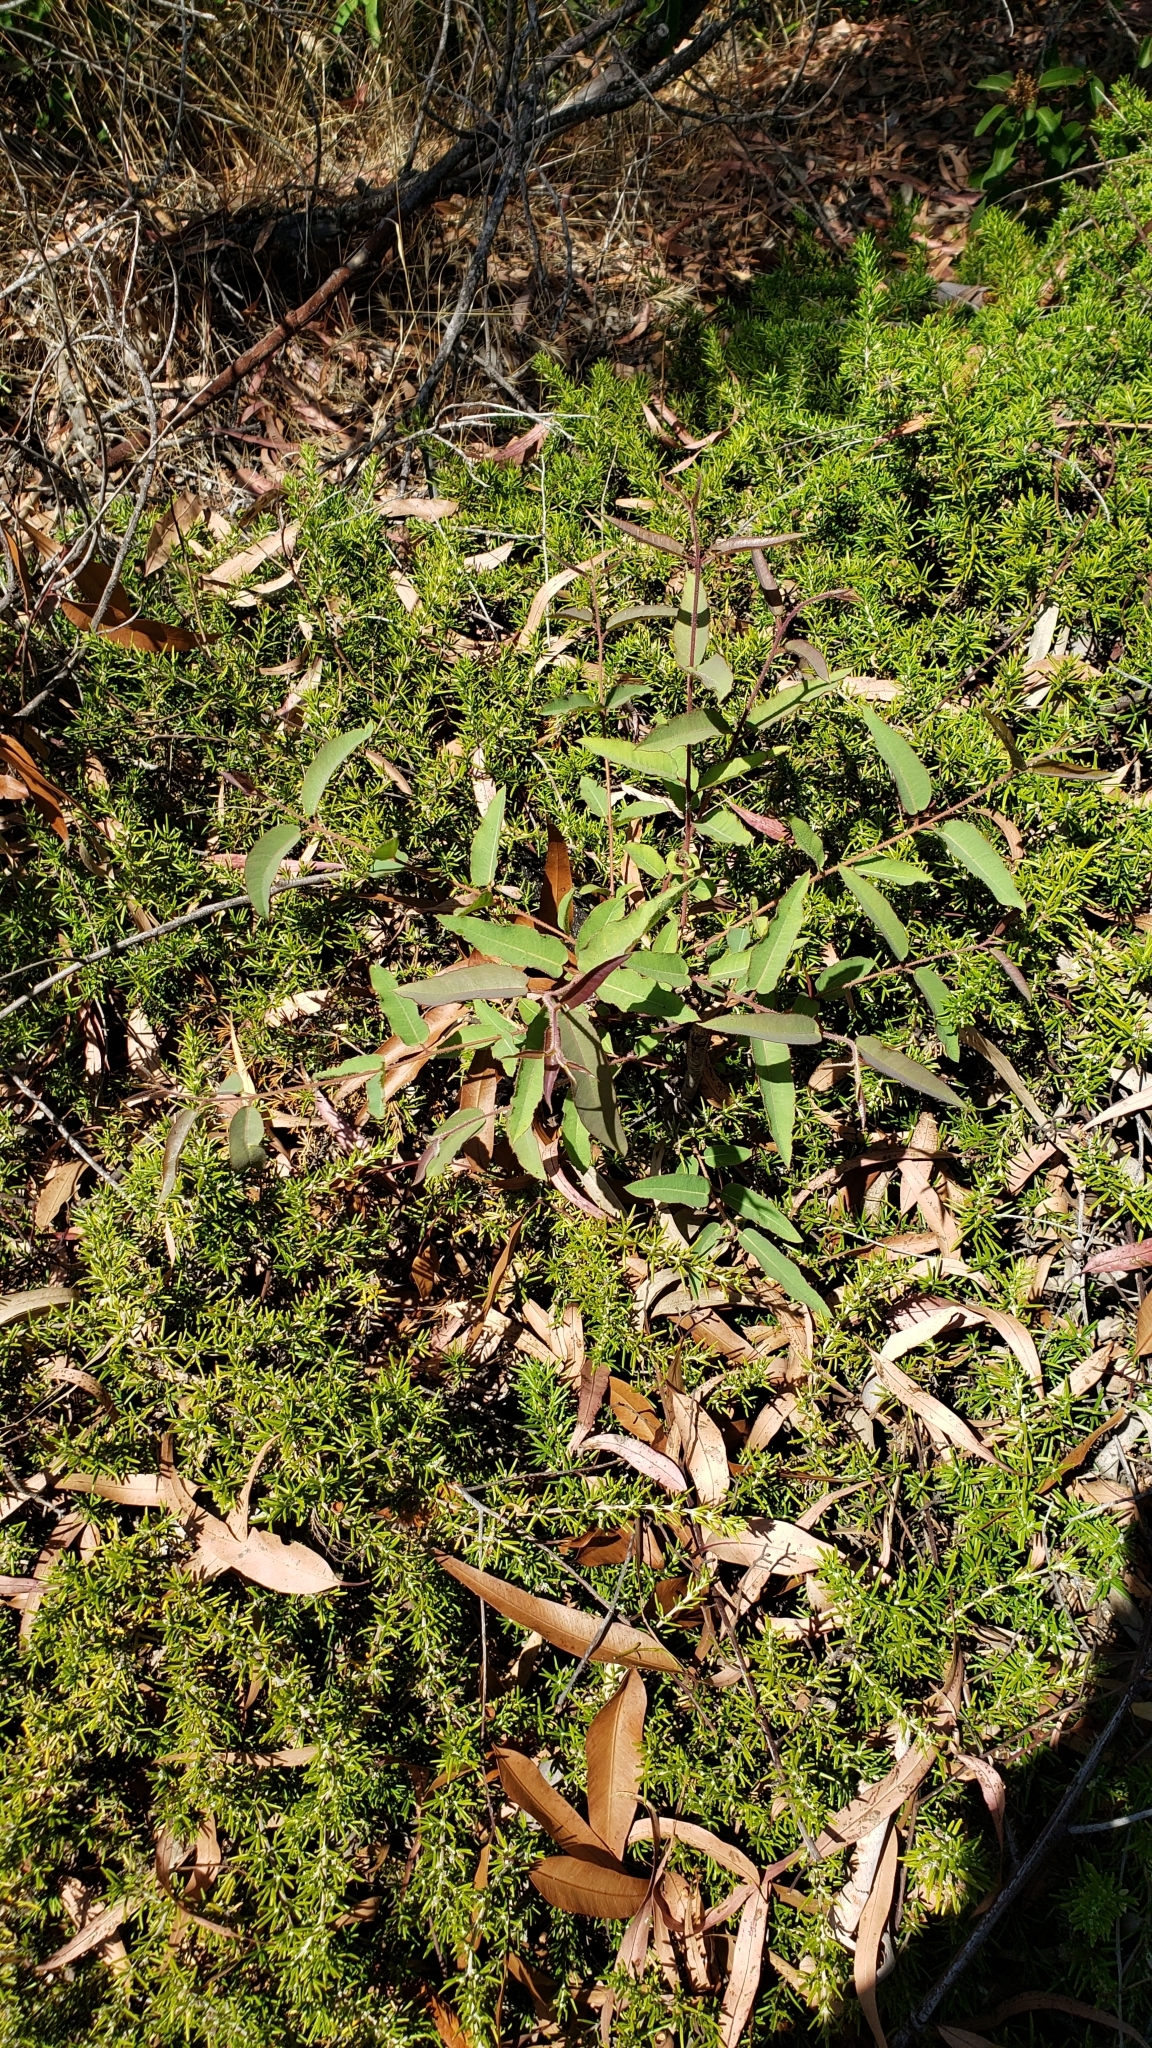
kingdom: Plantae
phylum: Tracheophyta
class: Magnoliopsida
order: Sapindales
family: Anacardiaceae
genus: Malosma
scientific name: Malosma laurina
